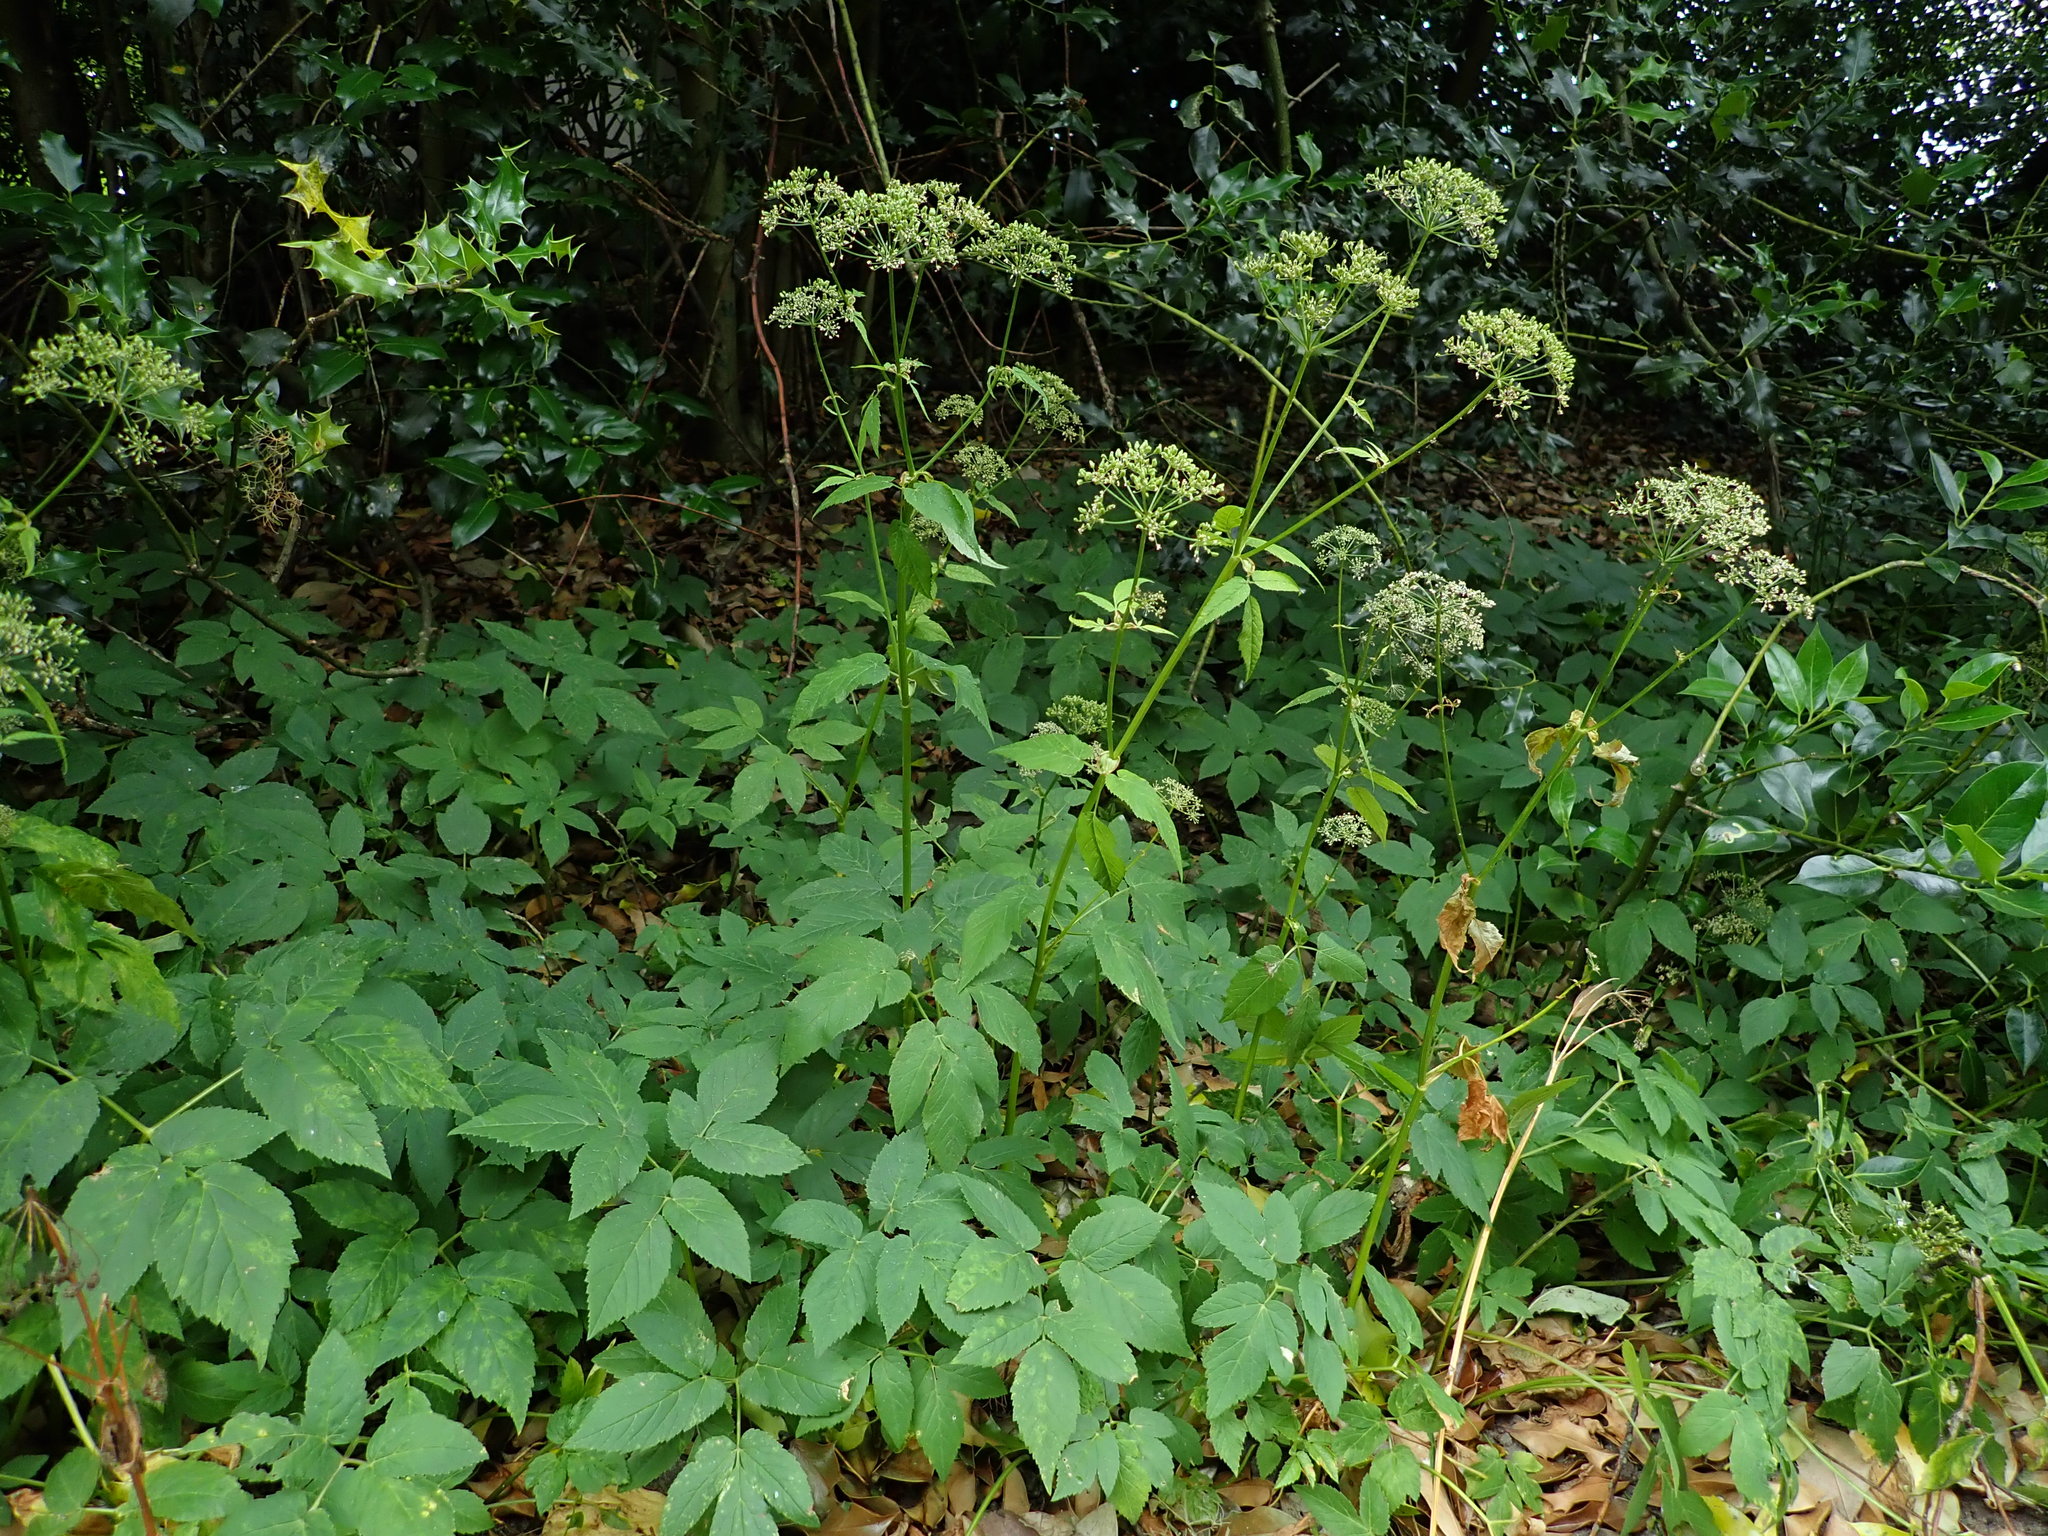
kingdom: Plantae
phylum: Tracheophyta
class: Magnoliopsida
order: Apiales
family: Apiaceae
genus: Aegopodium
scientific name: Aegopodium podagraria
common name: Ground-elder
